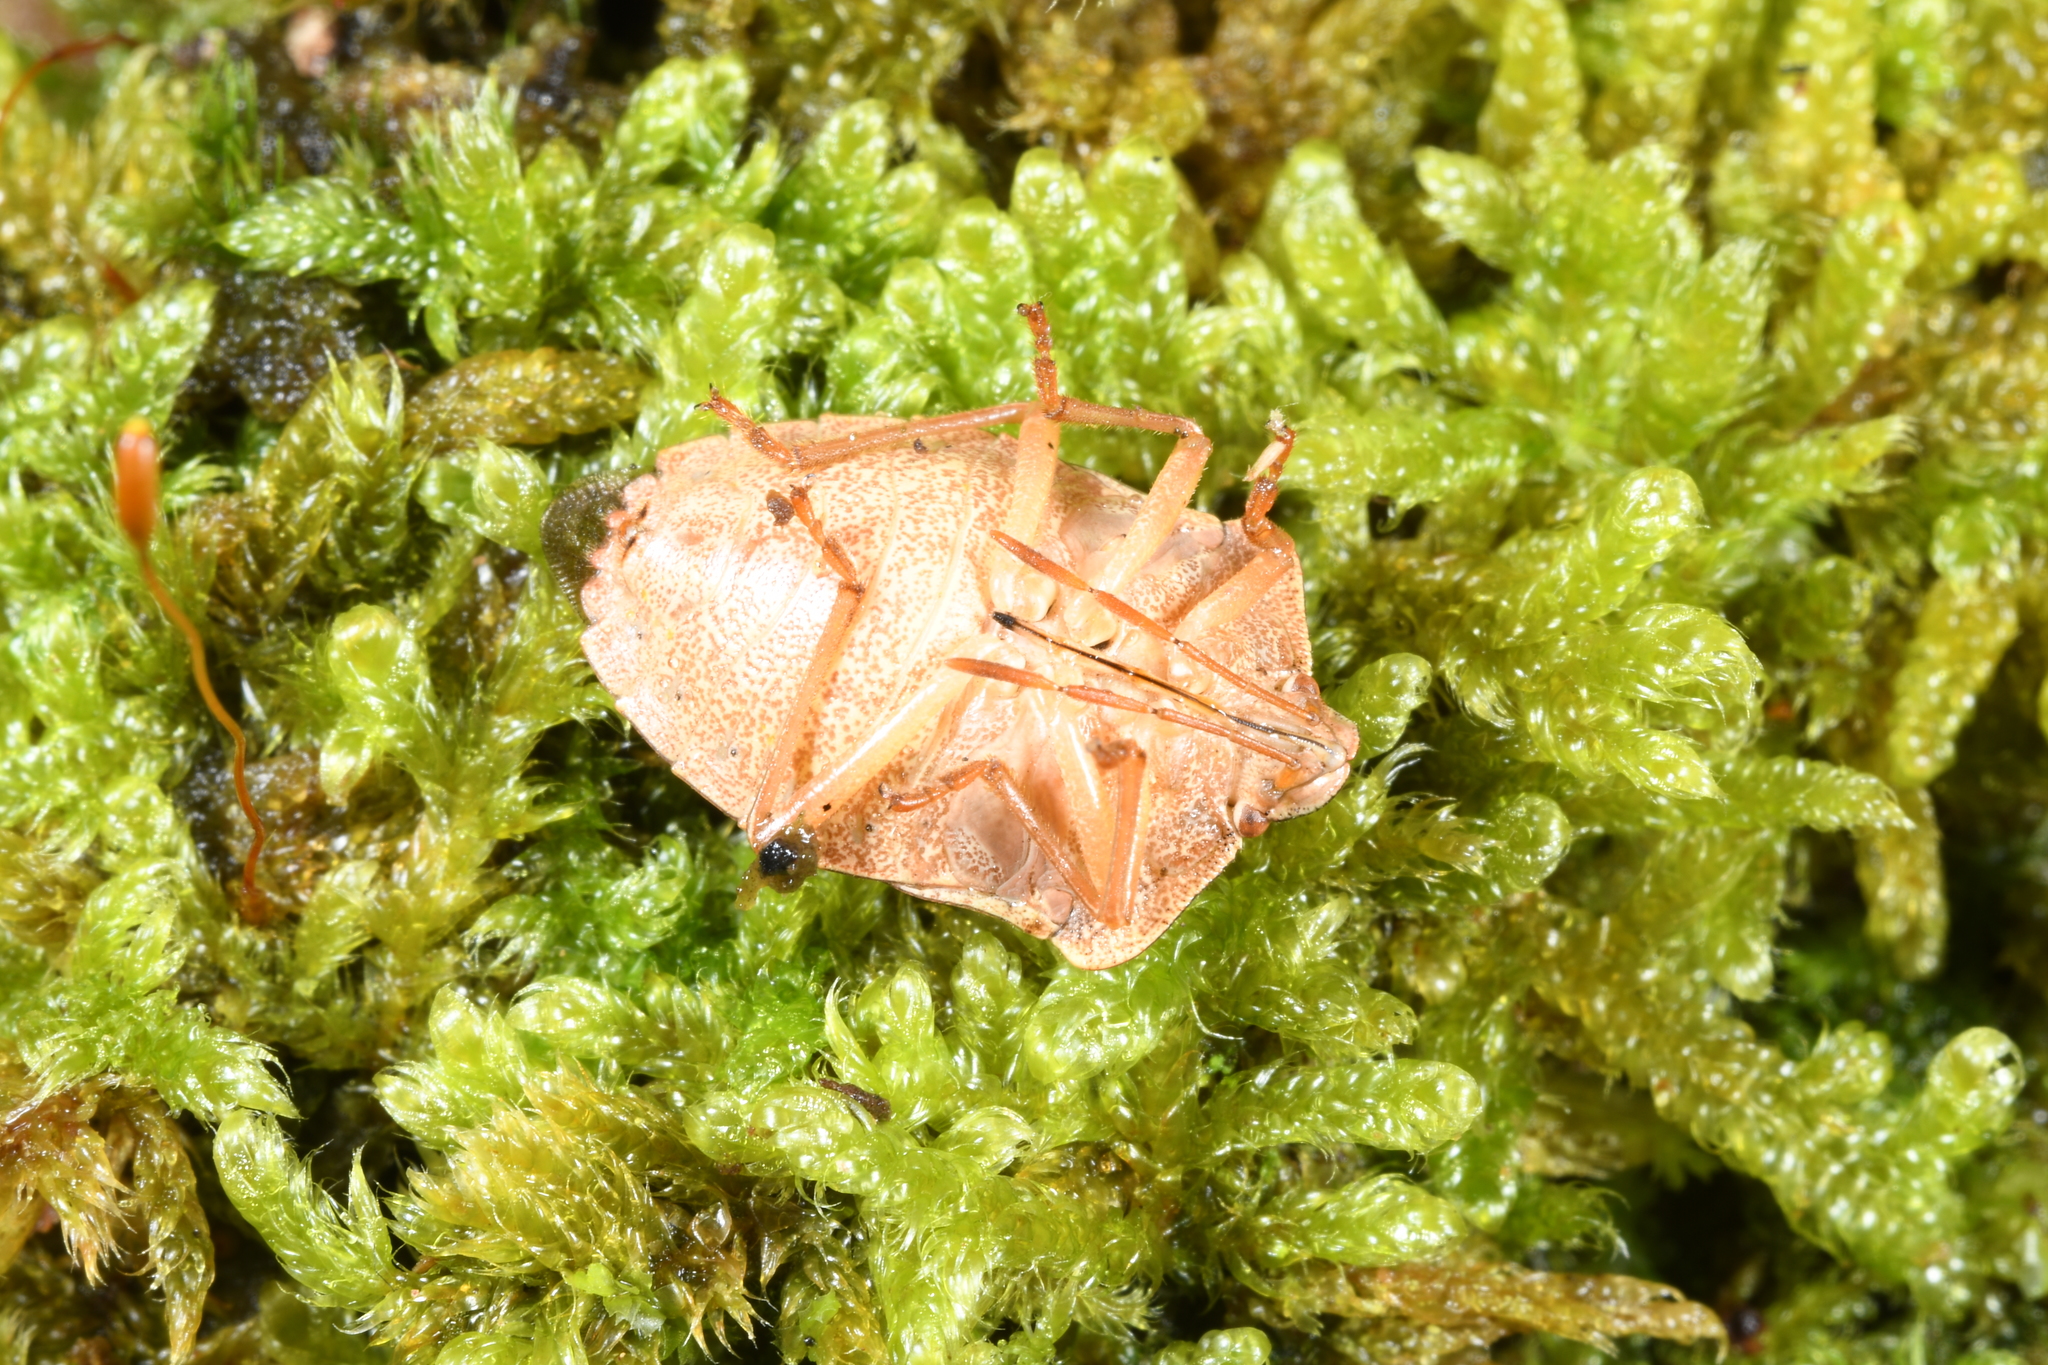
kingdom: Animalia
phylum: Arthropoda
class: Insecta
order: Hemiptera
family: Pentatomidae
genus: Palomena
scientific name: Palomena prasina
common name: Green shieldbug
